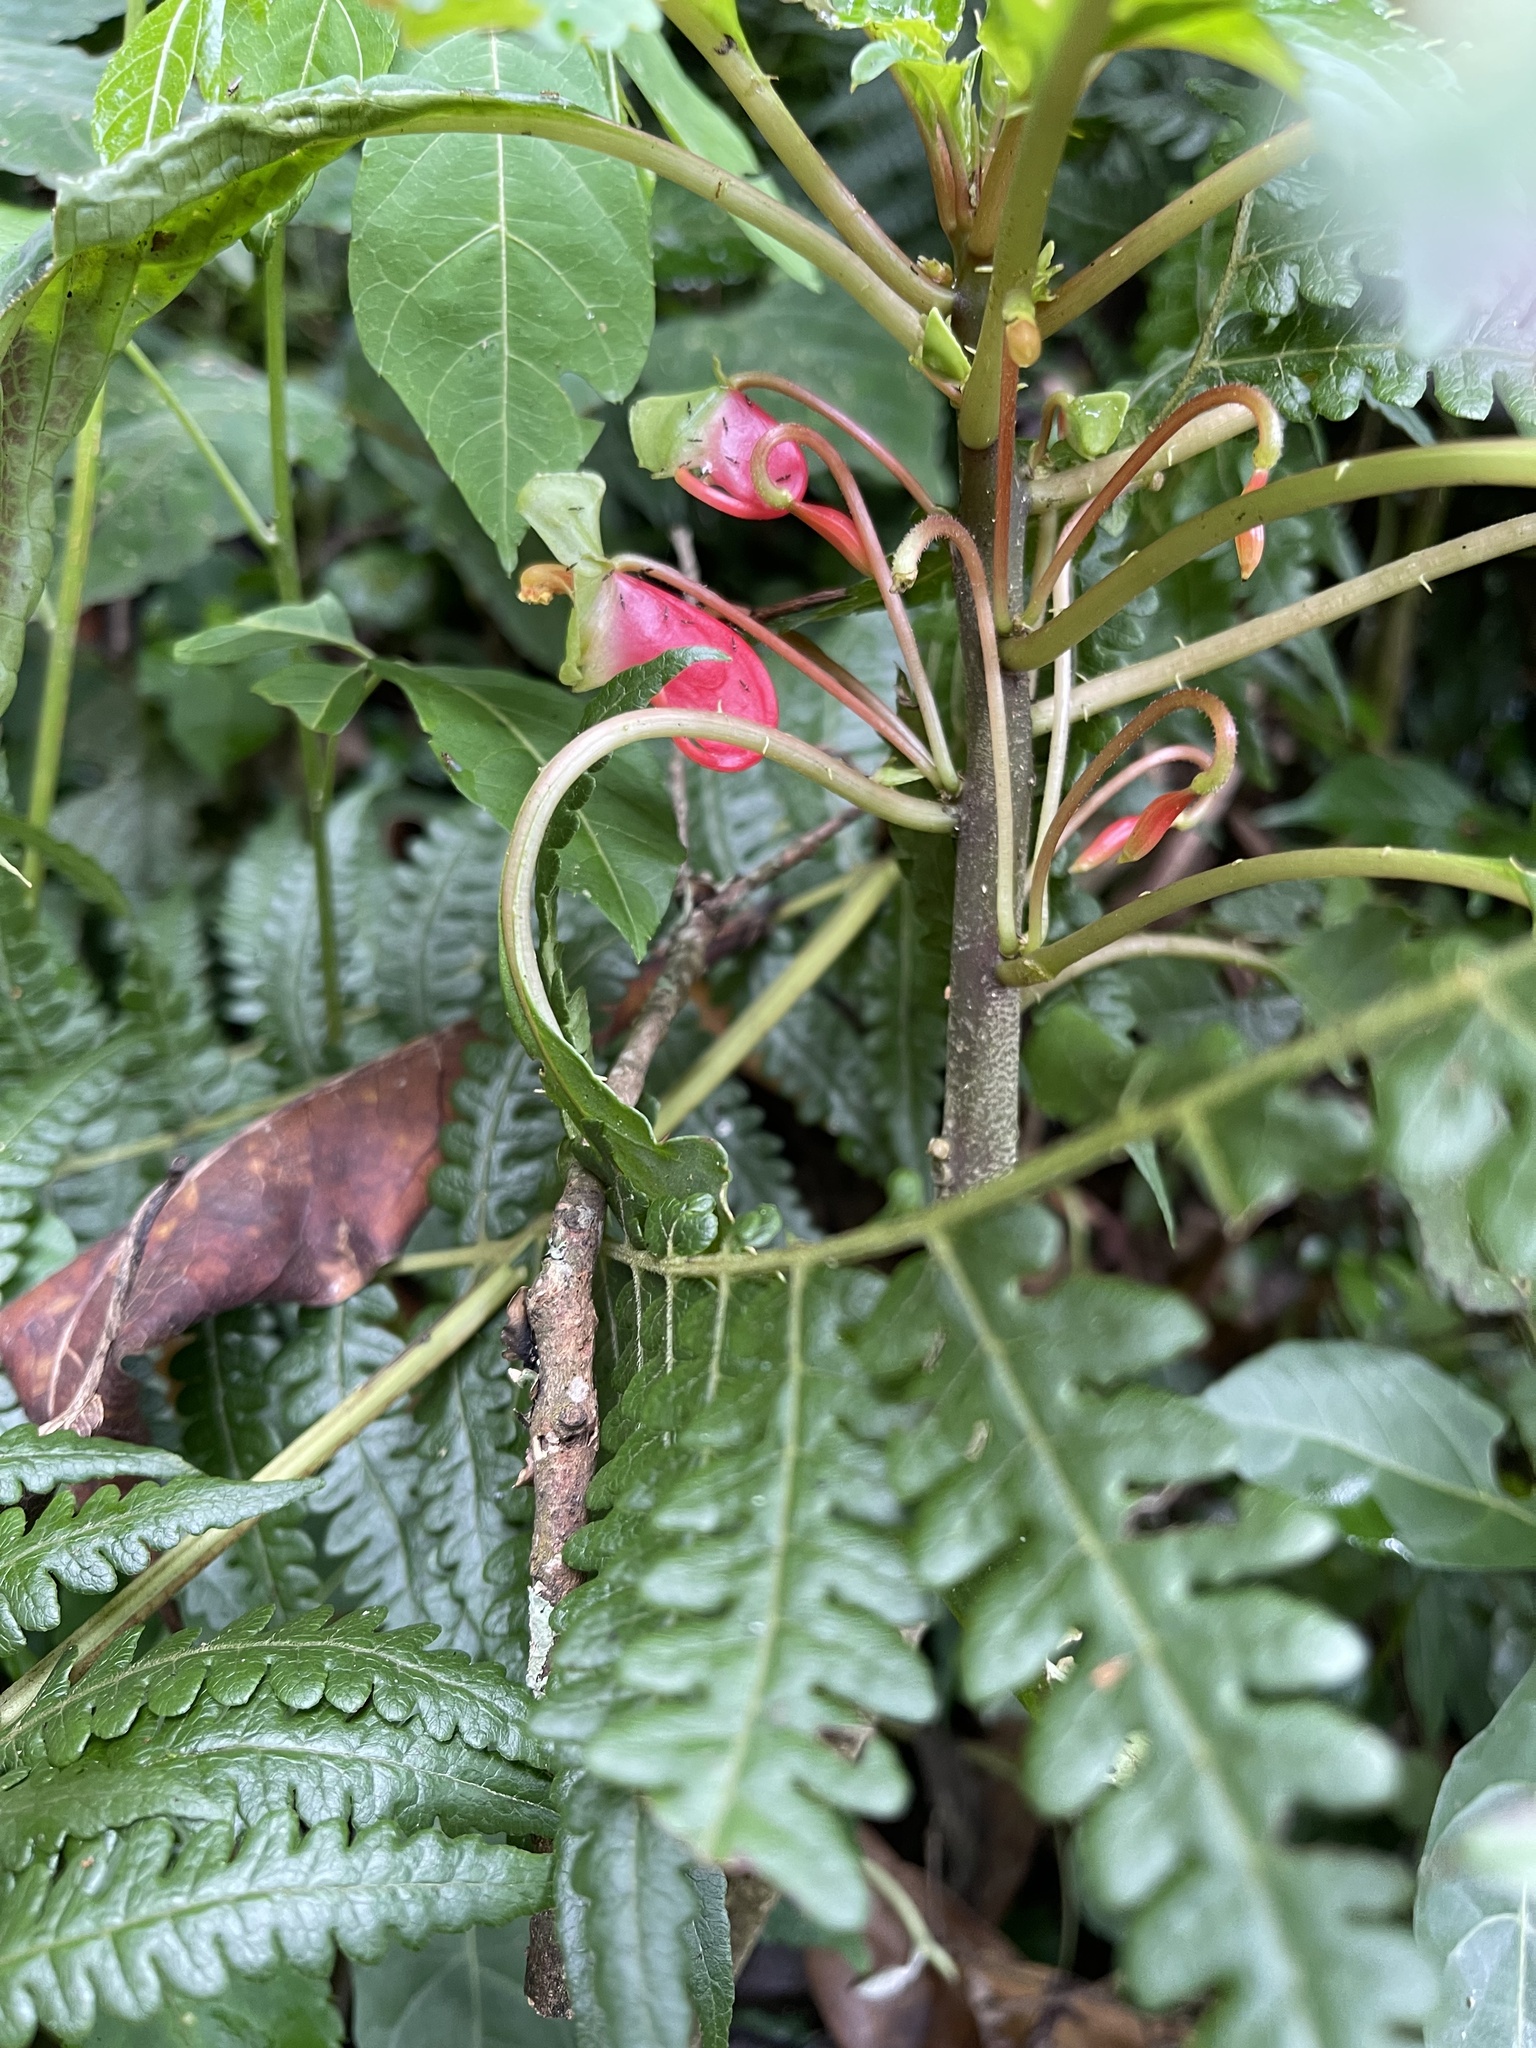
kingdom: Plantae
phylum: Tracheophyta
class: Magnoliopsida
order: Ericales
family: Balsaminaceae
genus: Impatiens
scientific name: Impatiens niamniamensis
